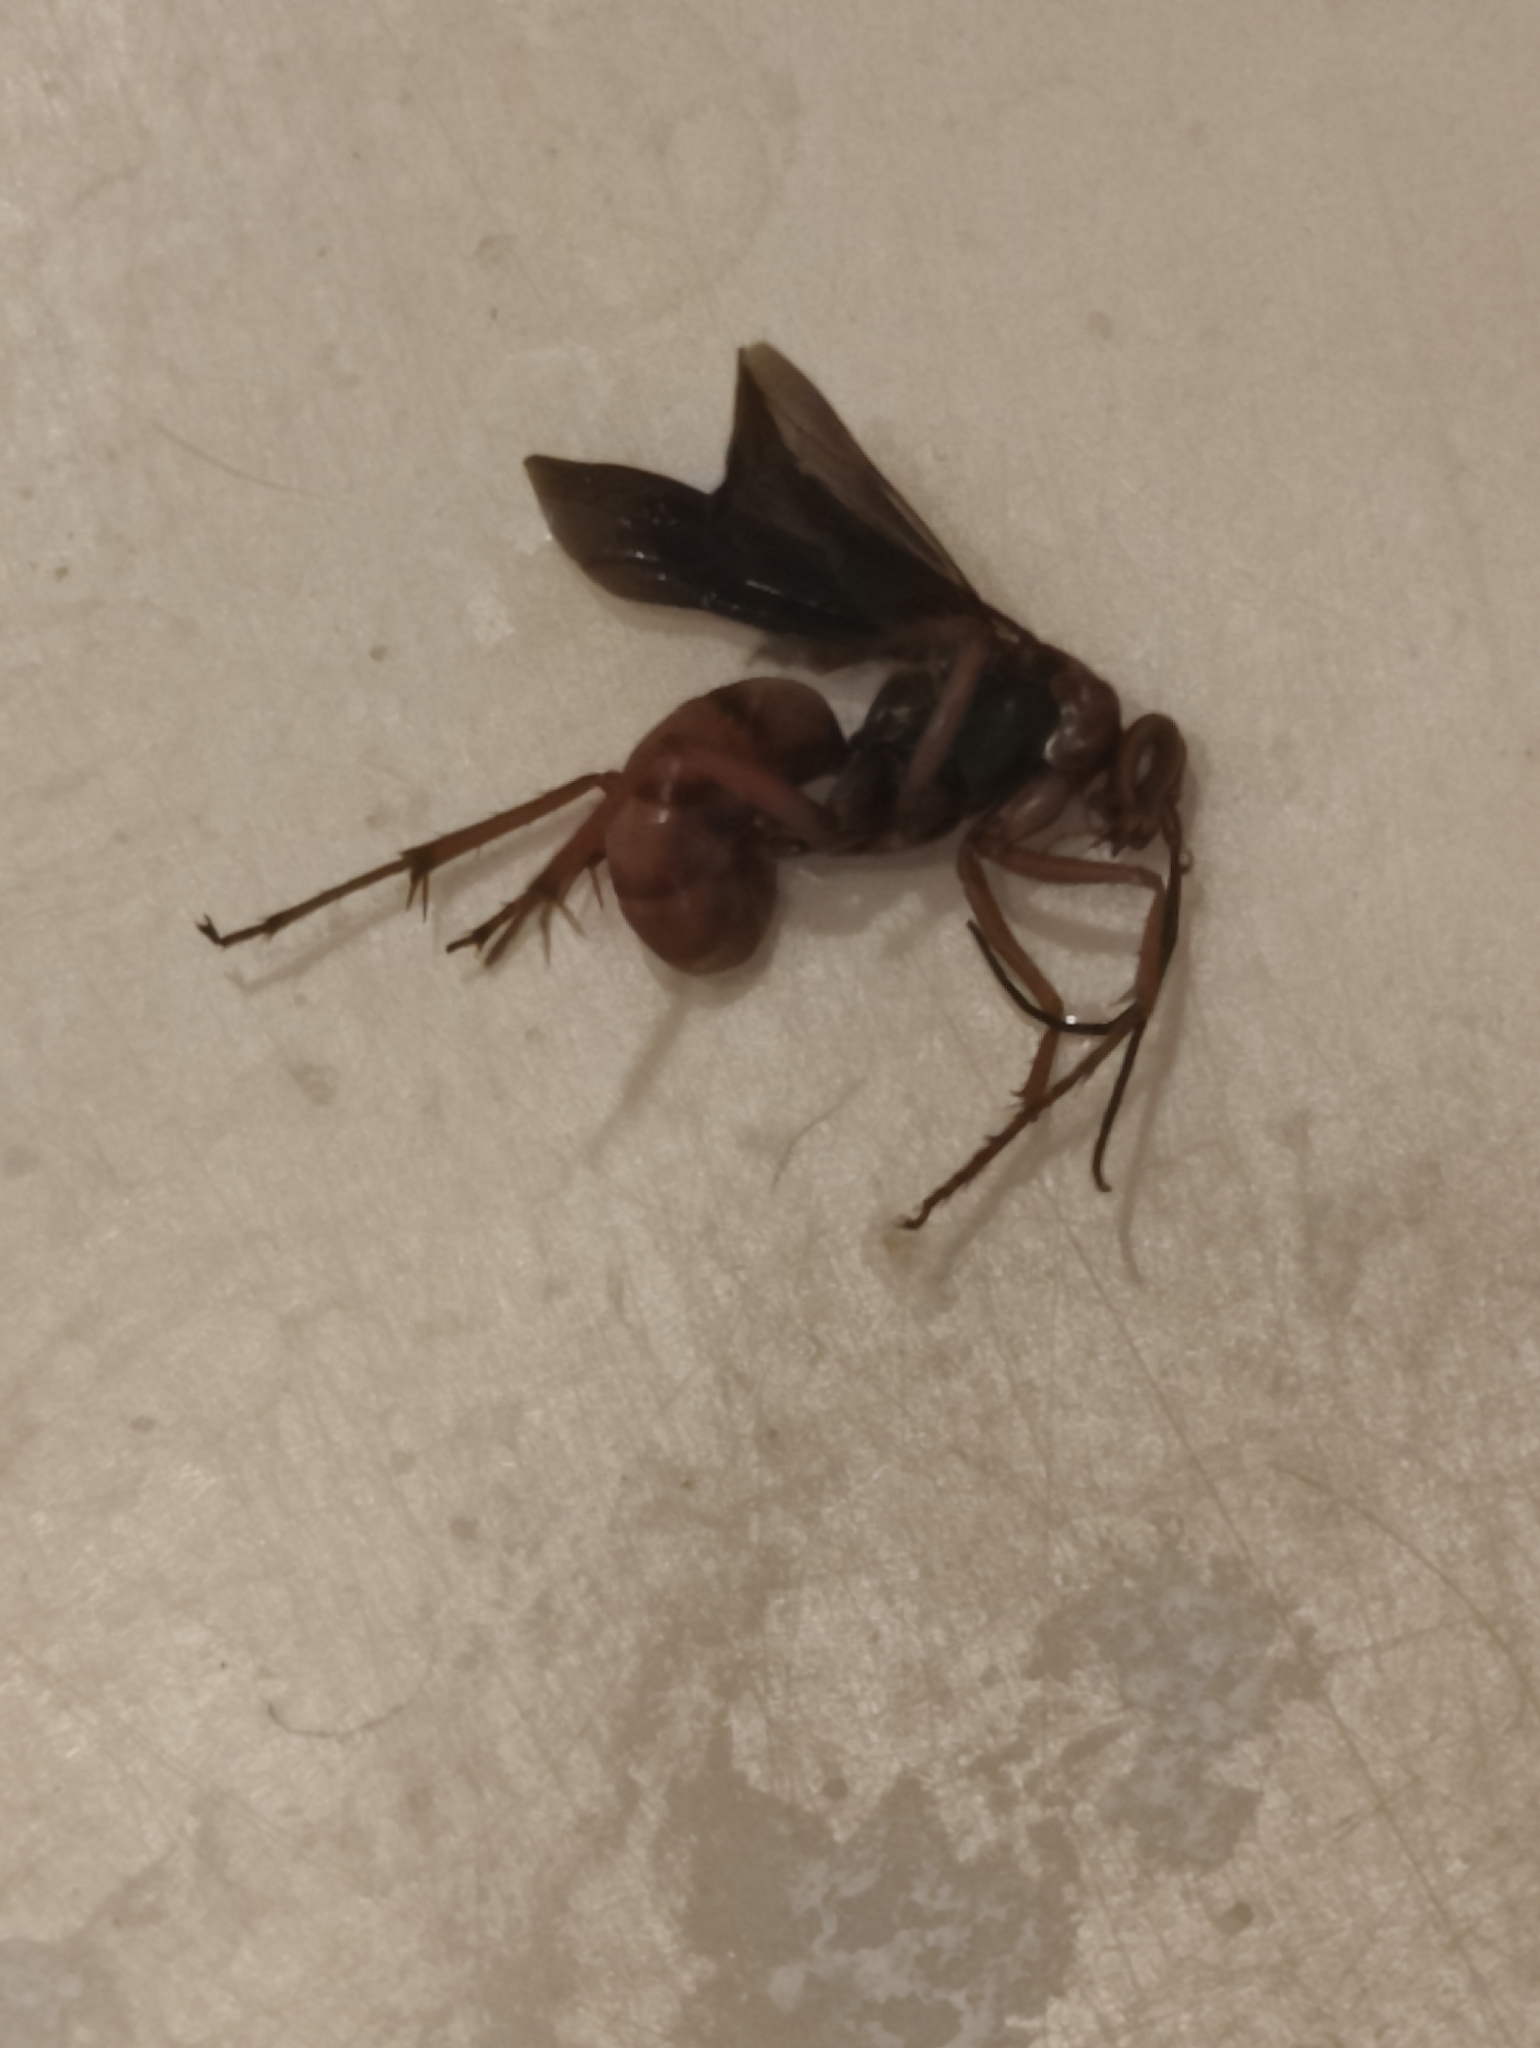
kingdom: Animalia
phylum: Arthropoda
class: Insecta
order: Hymenoptera
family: Pompilidae
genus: Tachypompilus
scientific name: Tachypompilus ferrugineus
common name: Rusty spider wasp
